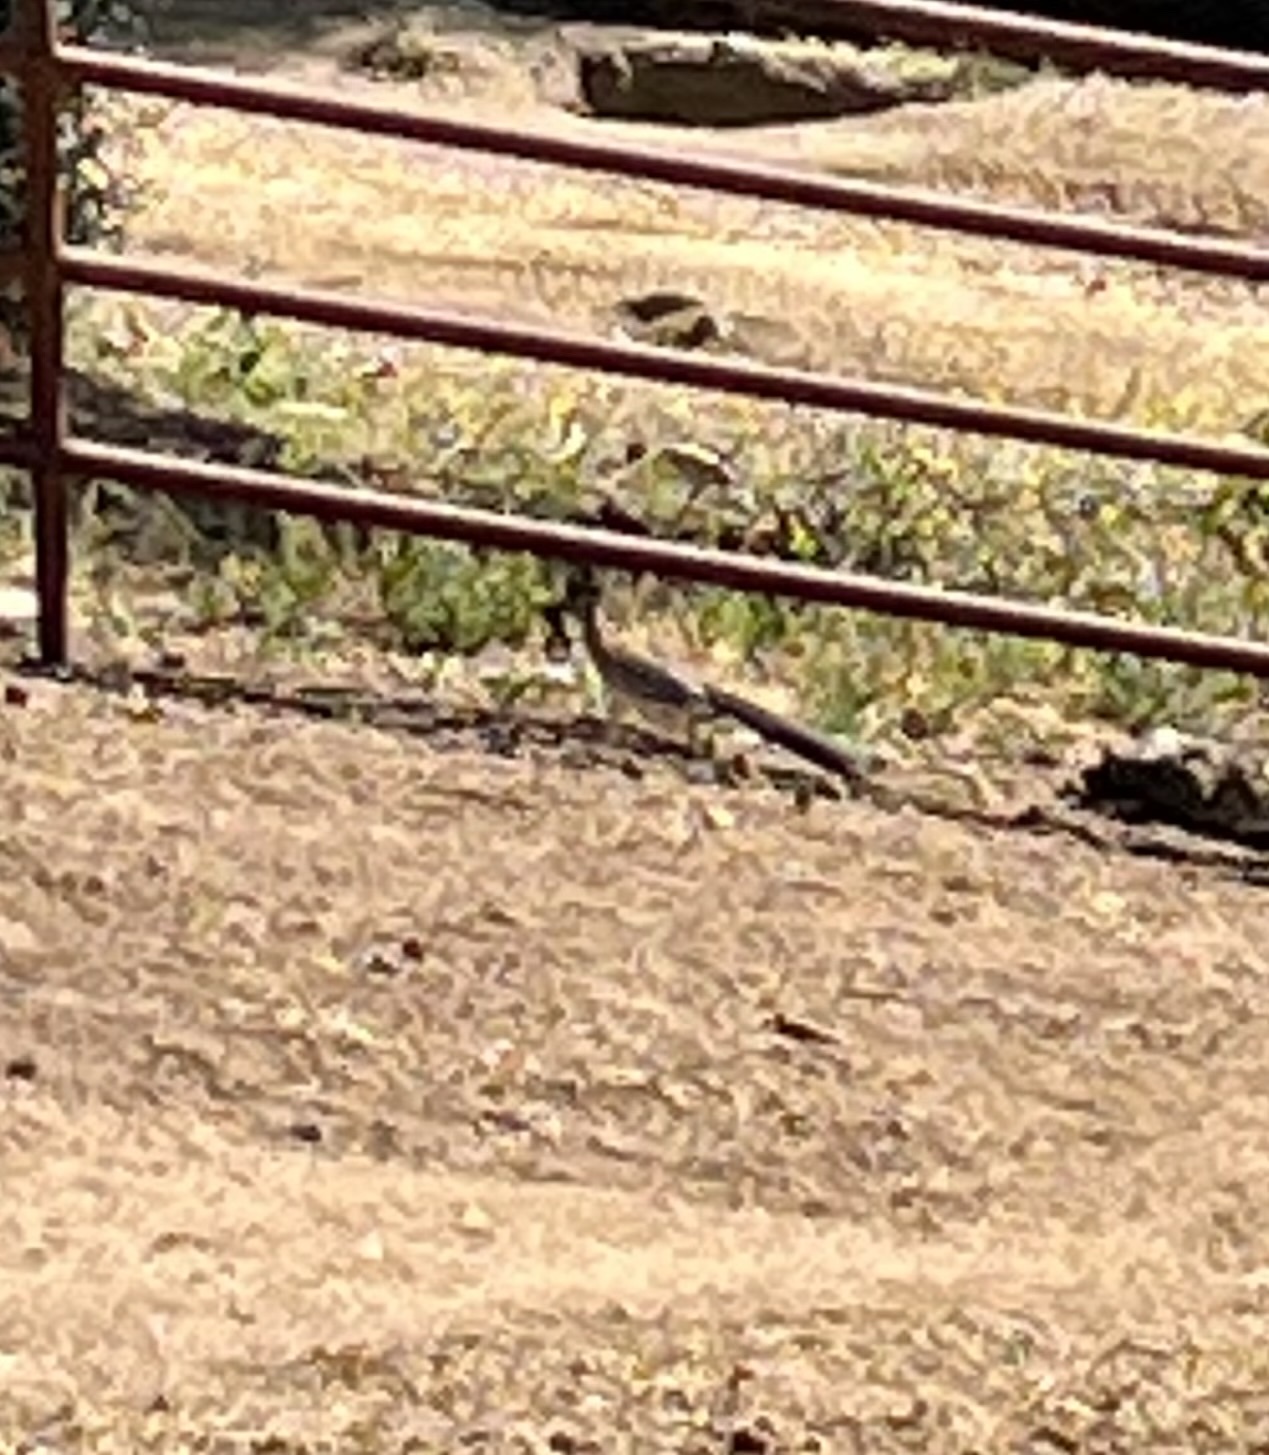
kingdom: Animalia
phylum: Chordata
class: Aves
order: Cuculiformes
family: Cuculidae
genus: Geococcyx
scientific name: Geococcyx californianus
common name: Greater roadrunner
